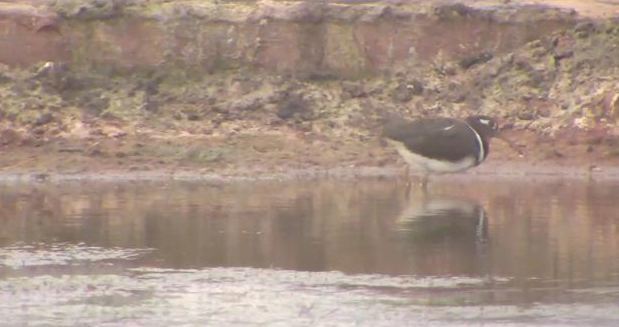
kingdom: Animalia
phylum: Chordata
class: Aves
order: Charadriiformes
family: Rostratulidae
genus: Rostratula
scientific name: Rostratula benghalensis
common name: Greater painted-snipe
